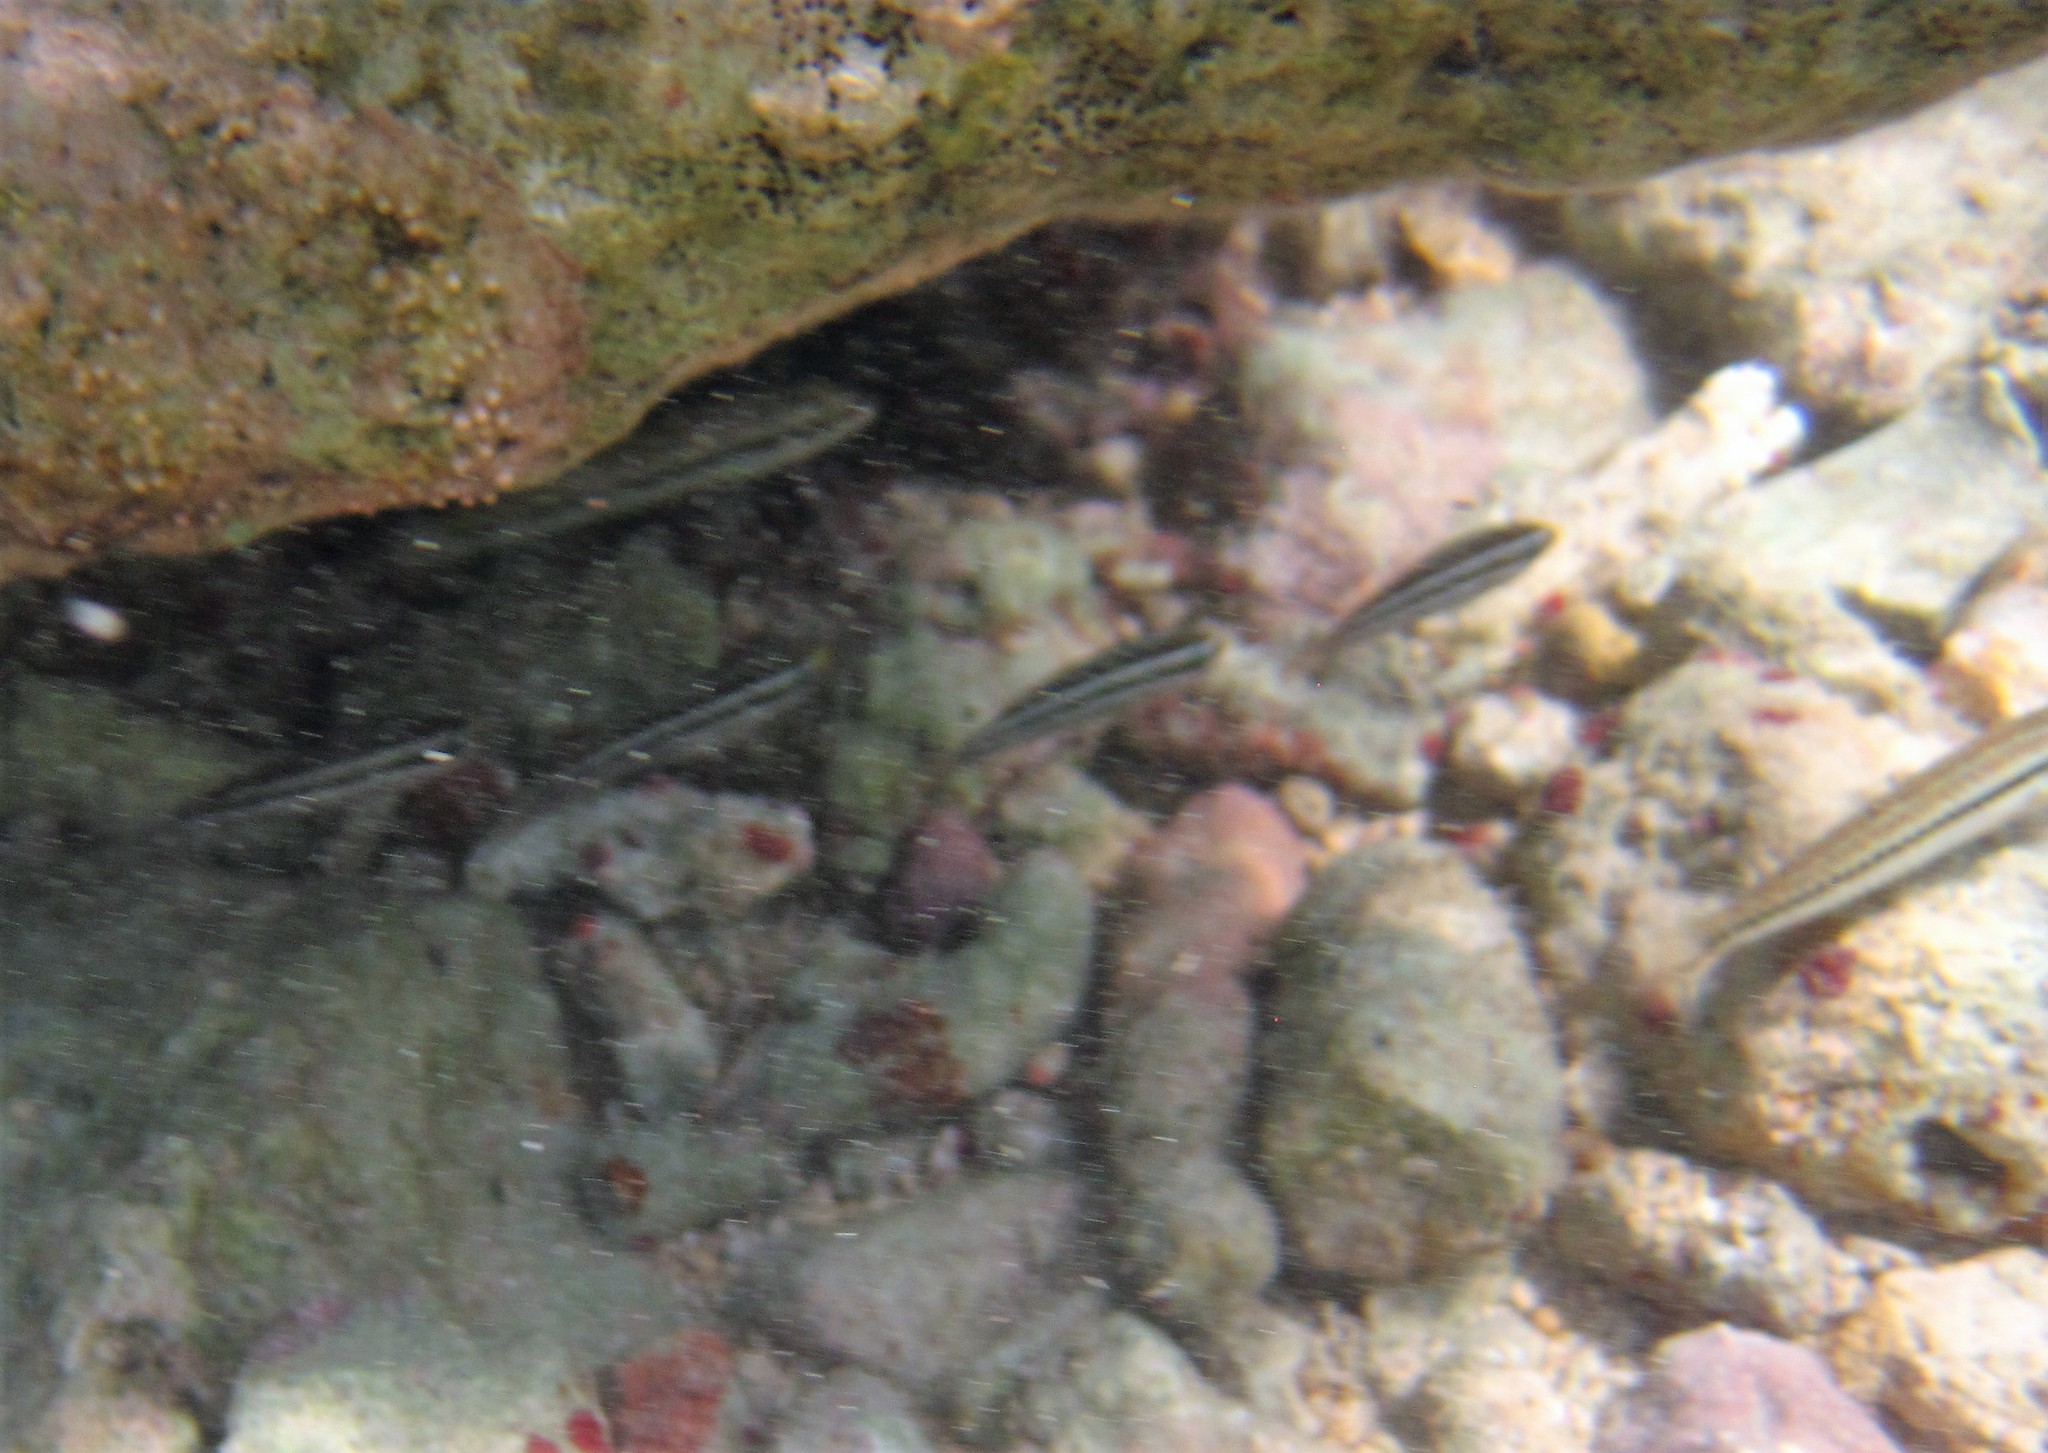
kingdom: Animalia
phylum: Chordata
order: Perciformes
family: Labridae
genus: Halichoeres
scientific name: Halichoeres bivittatus
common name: Slippery dick
